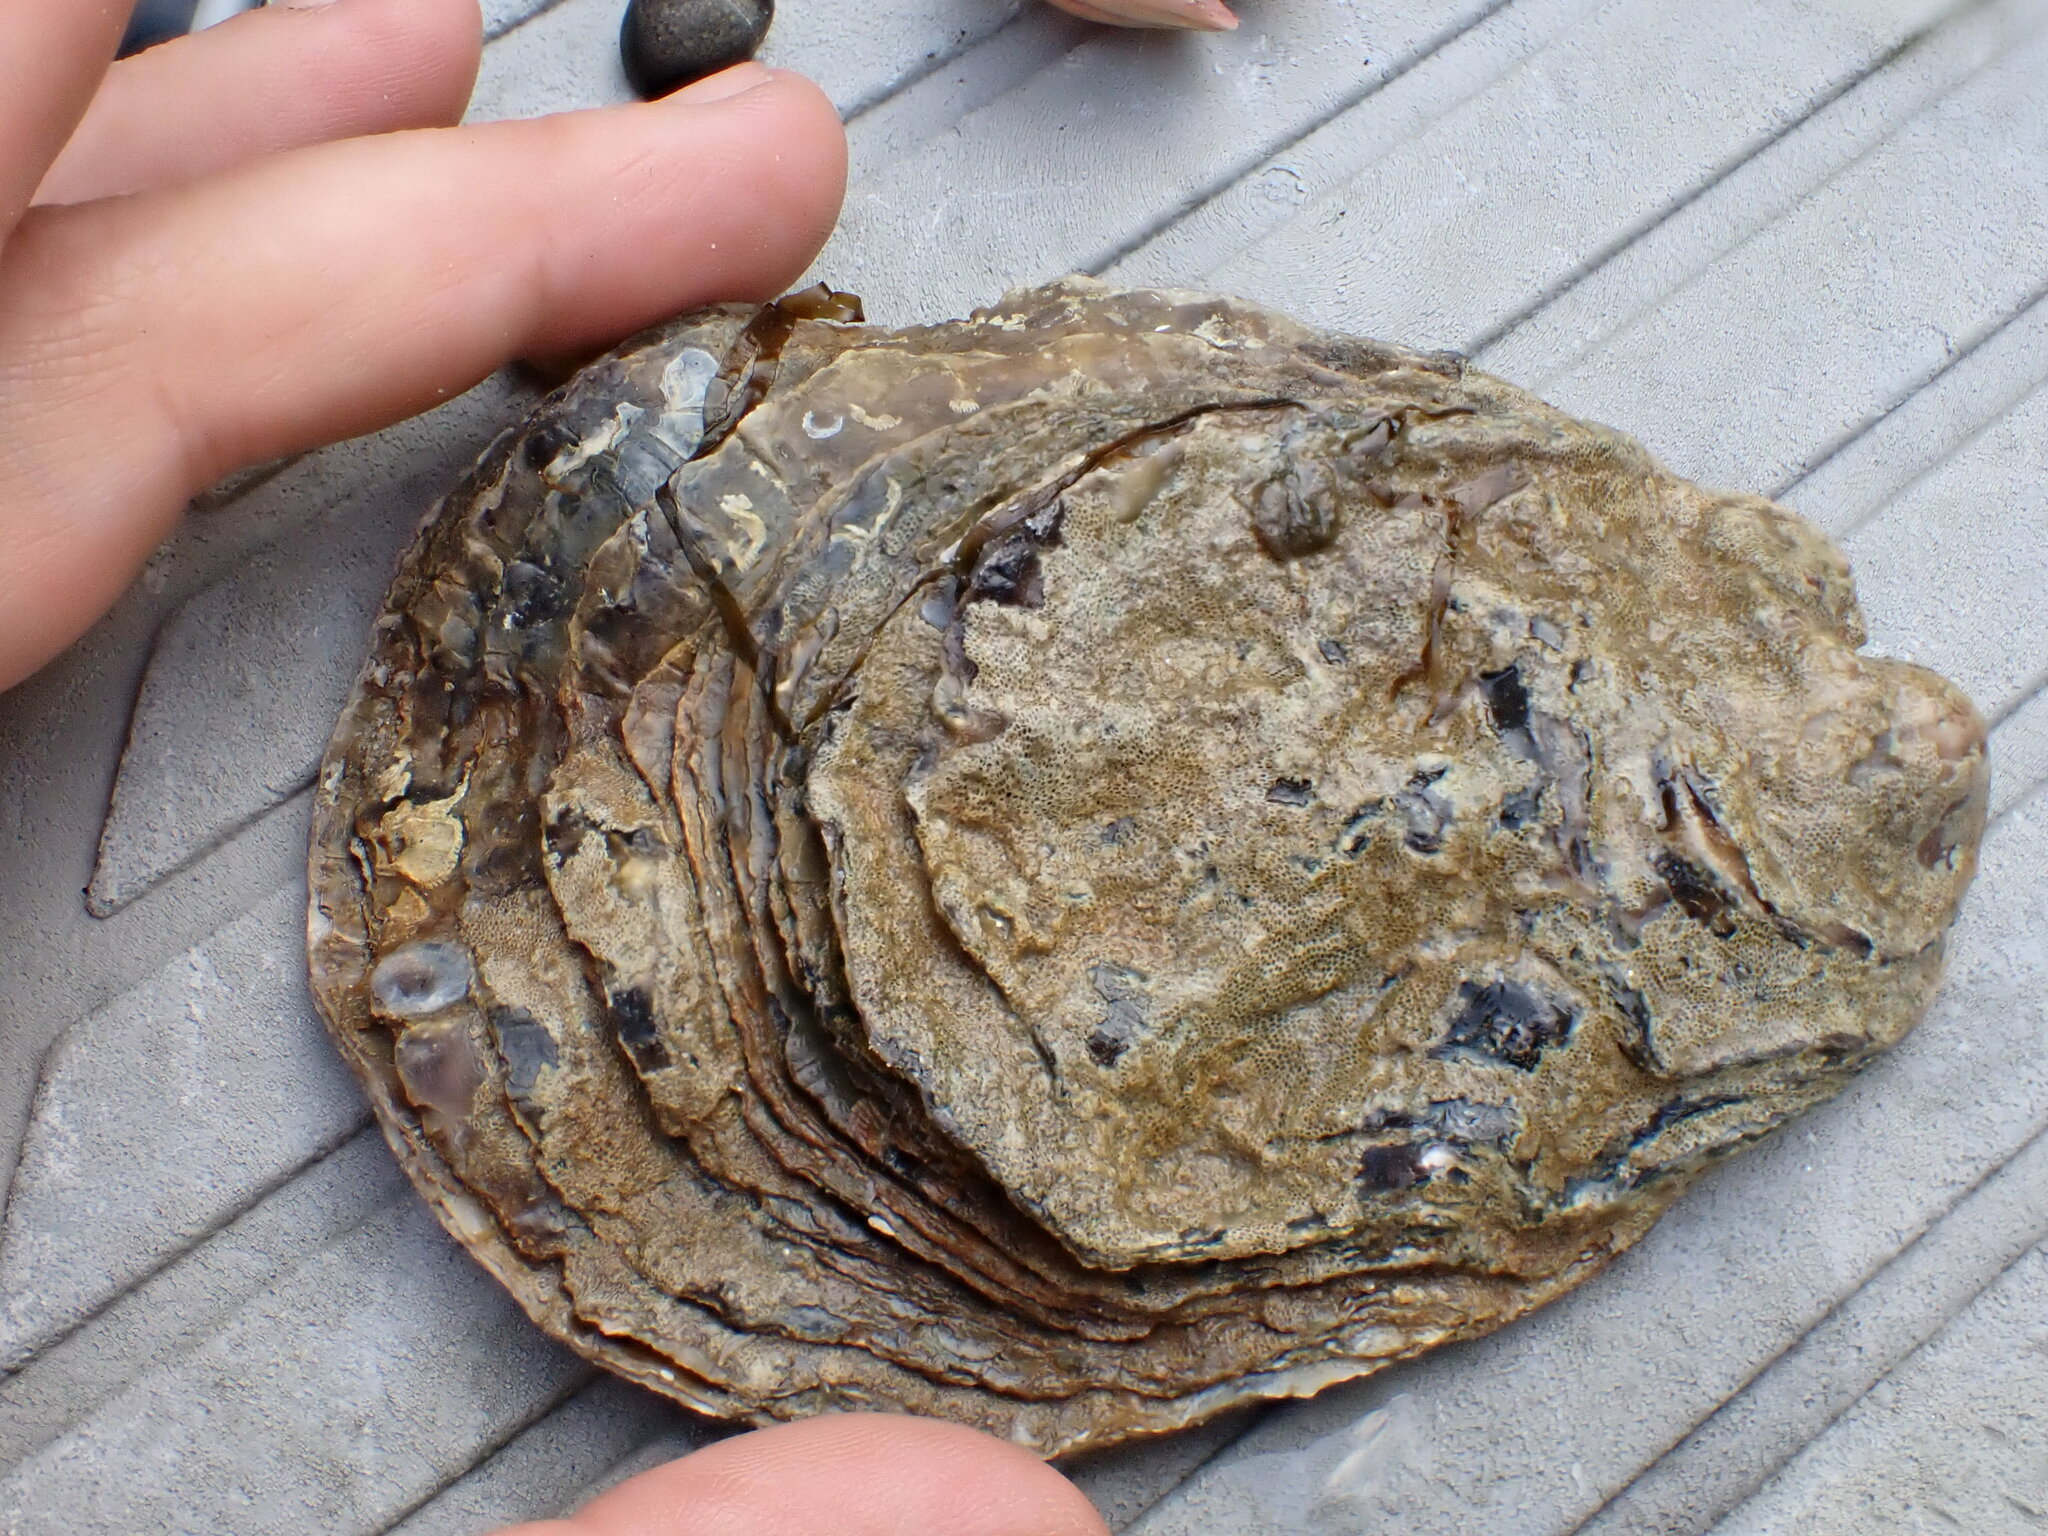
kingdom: Animalia
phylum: Mollusca
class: Bivalvia
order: Ostreida
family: Ostreidae
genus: Ostrea
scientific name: Ostrea edulis
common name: Flat oyster
